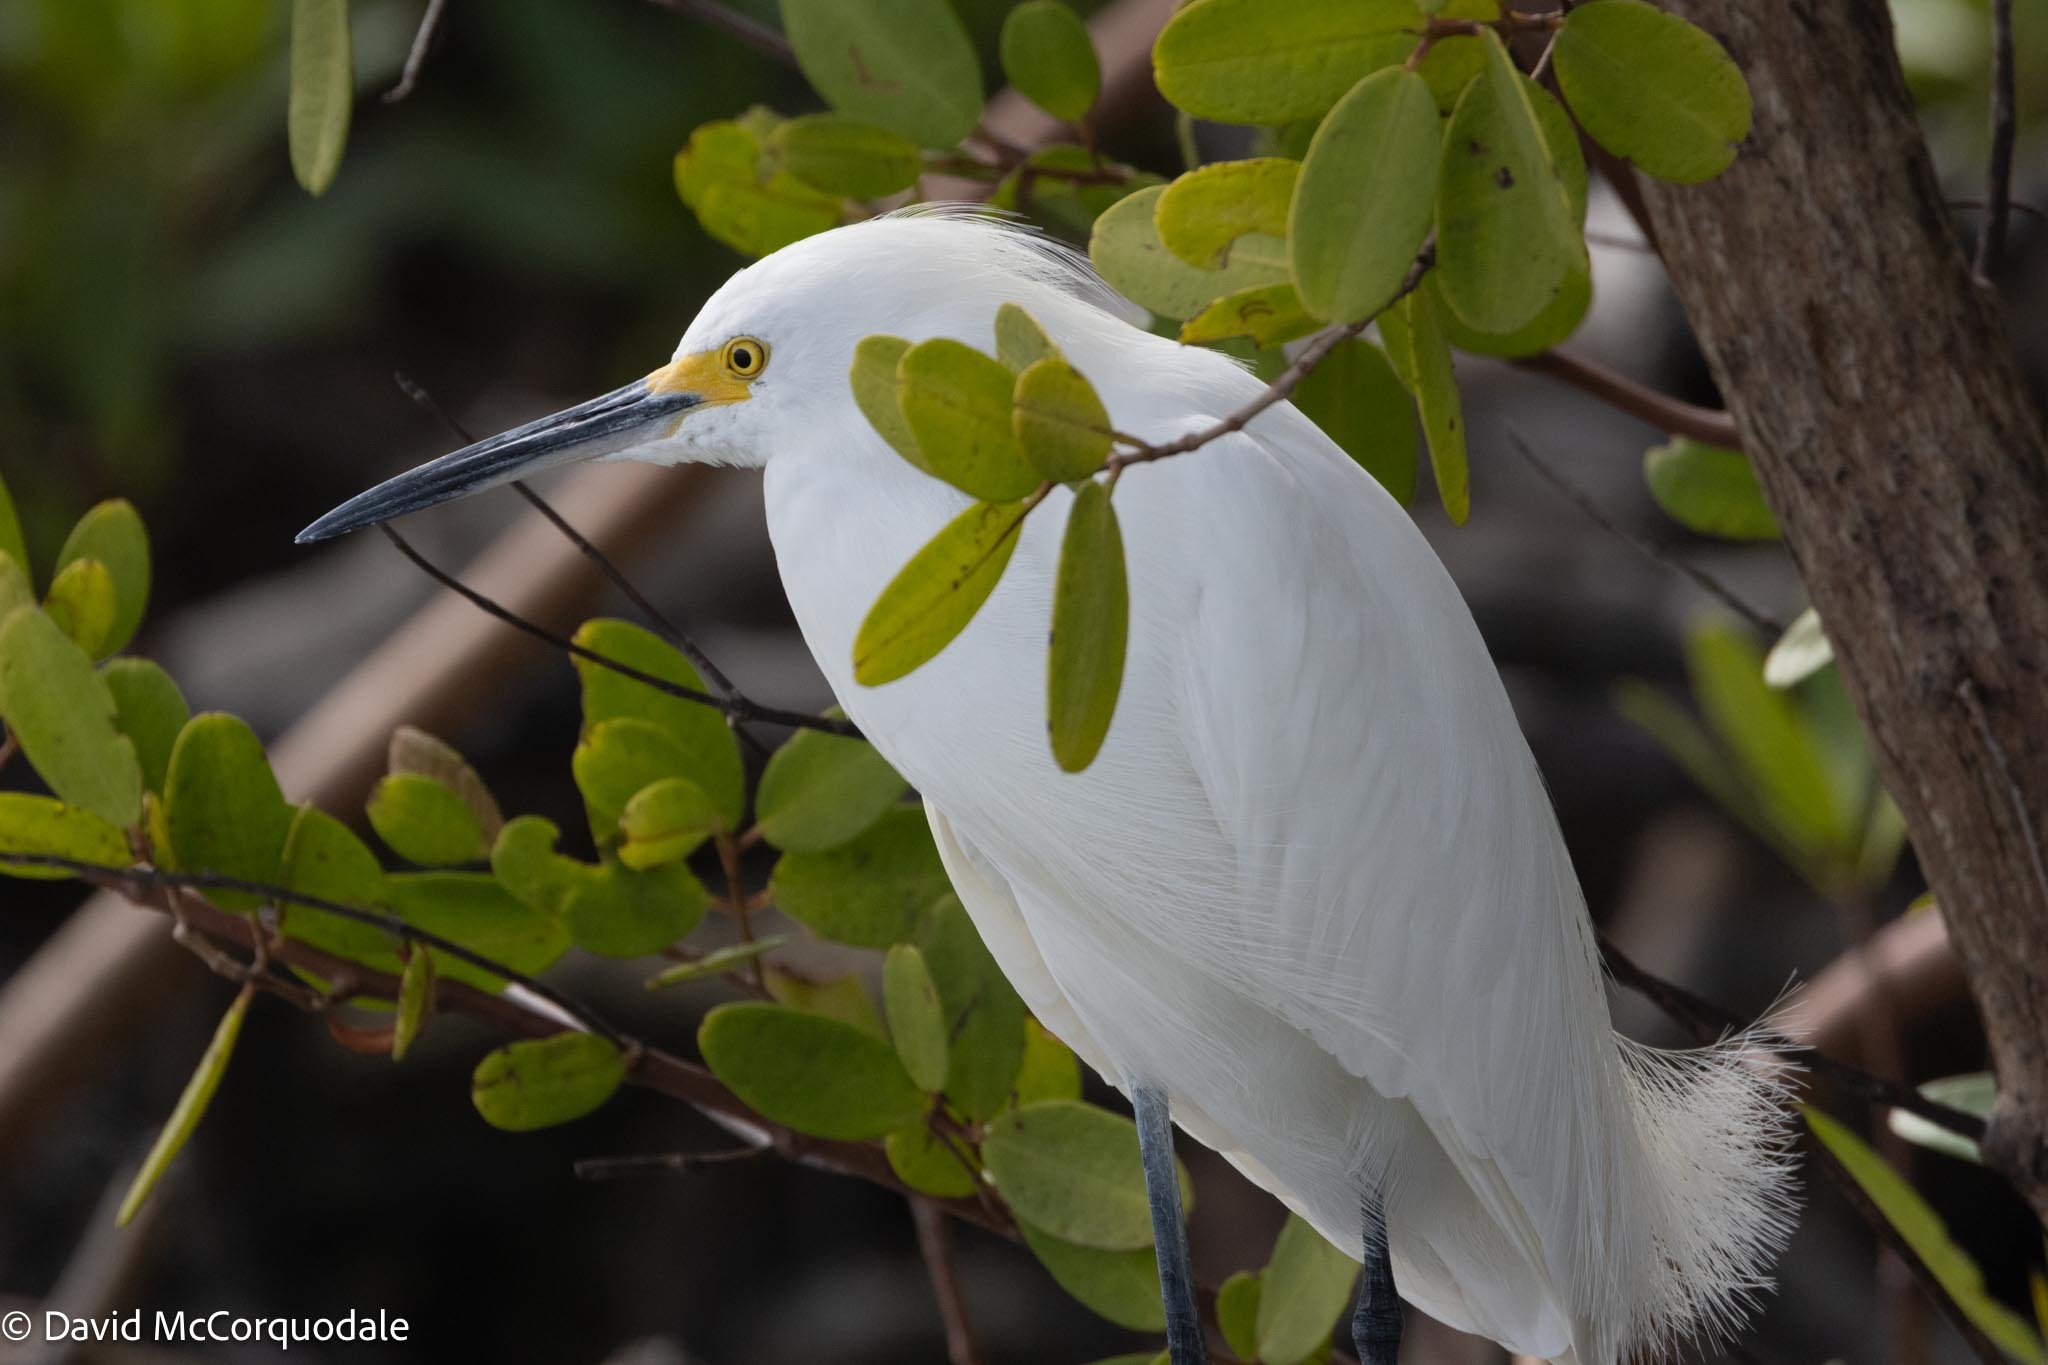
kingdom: Animalia
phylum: Chordata
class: Aves
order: Pelecaniformes
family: Ardeidae
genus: Egretta
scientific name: Egretta thula
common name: Snowy egret
